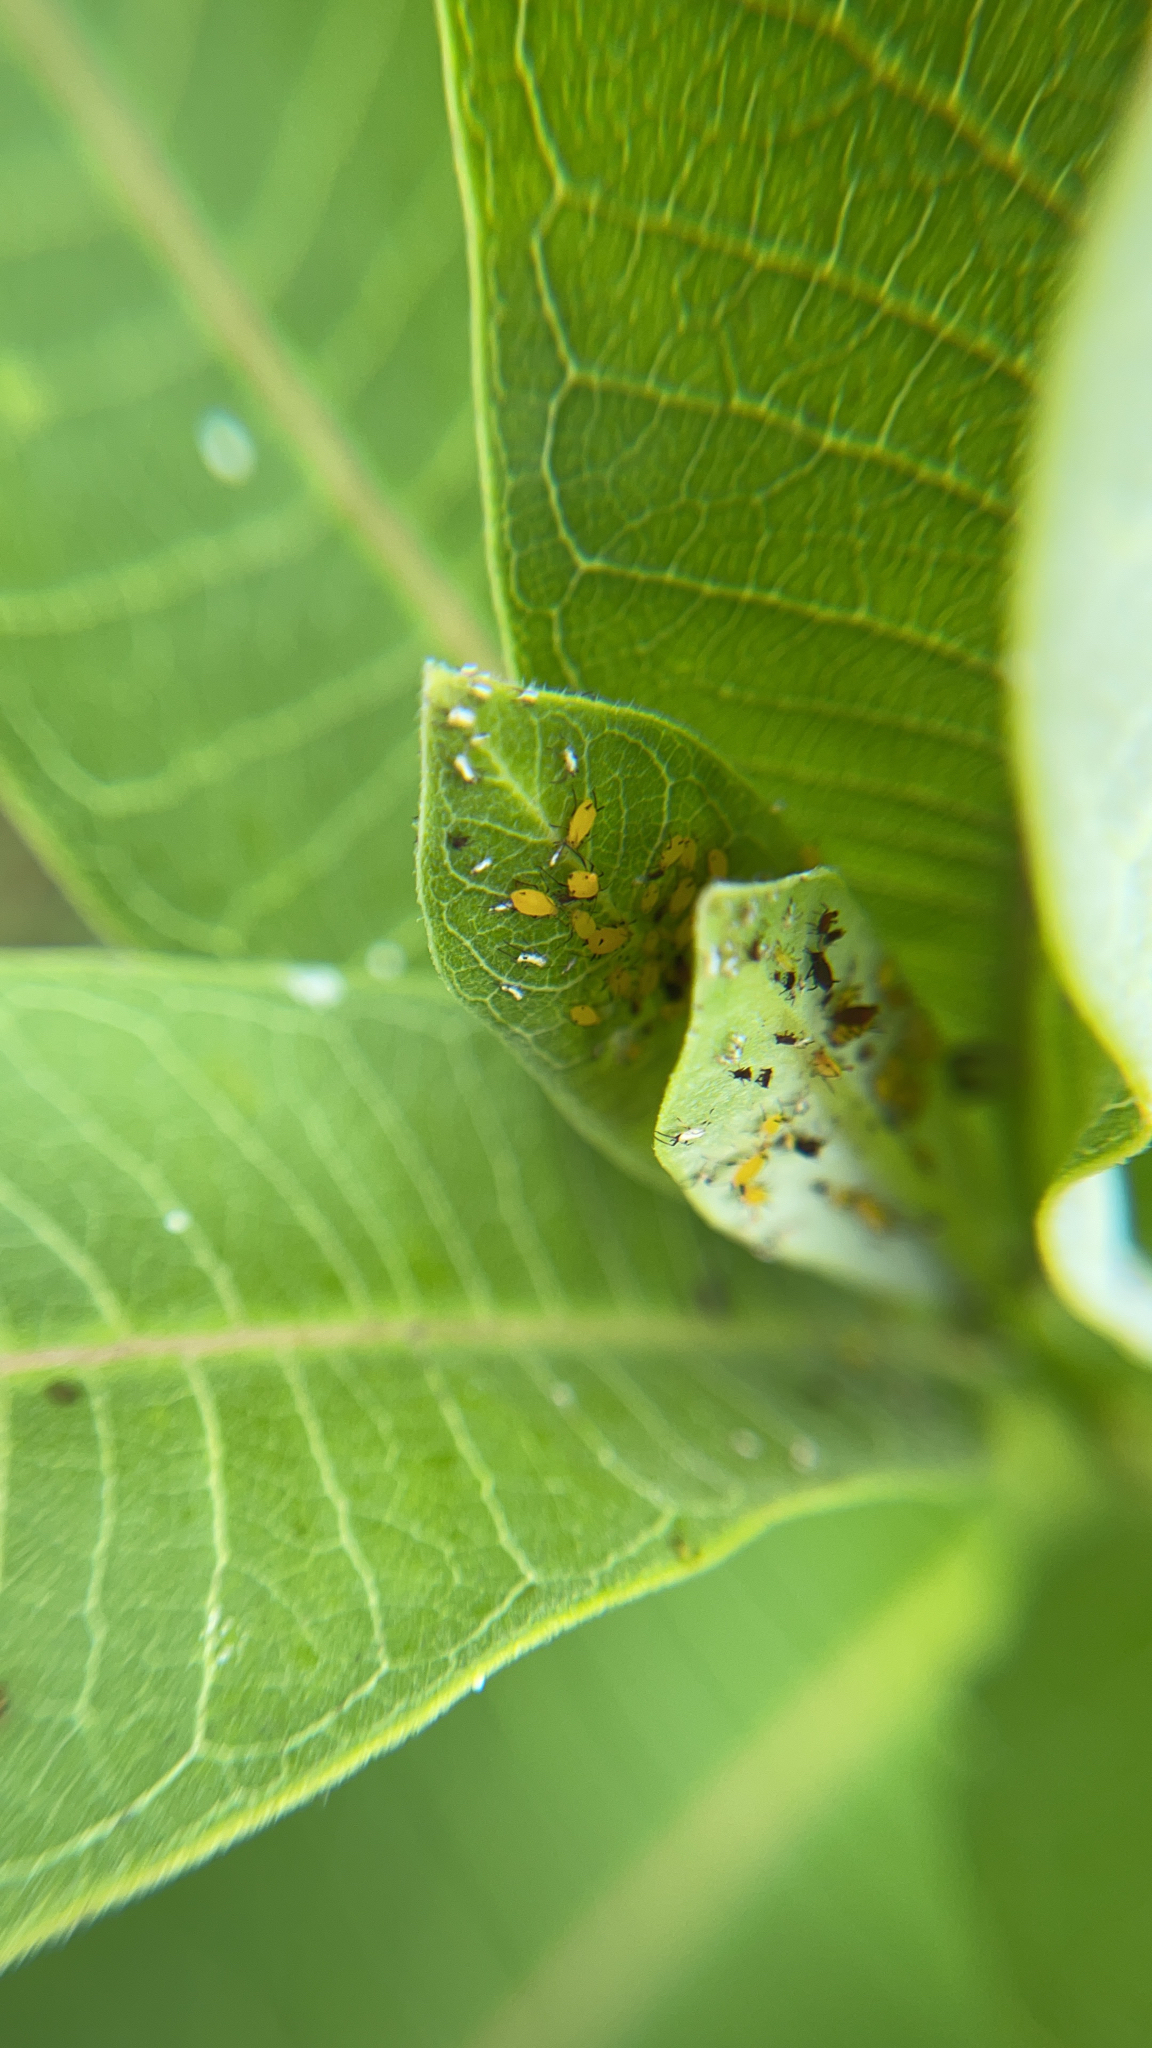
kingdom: Animalia
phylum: Arthropoda
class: Insecta
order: Hemiptera
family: Aphididae
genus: Aphis
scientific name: Aphis nerii
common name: Oleander aphid
